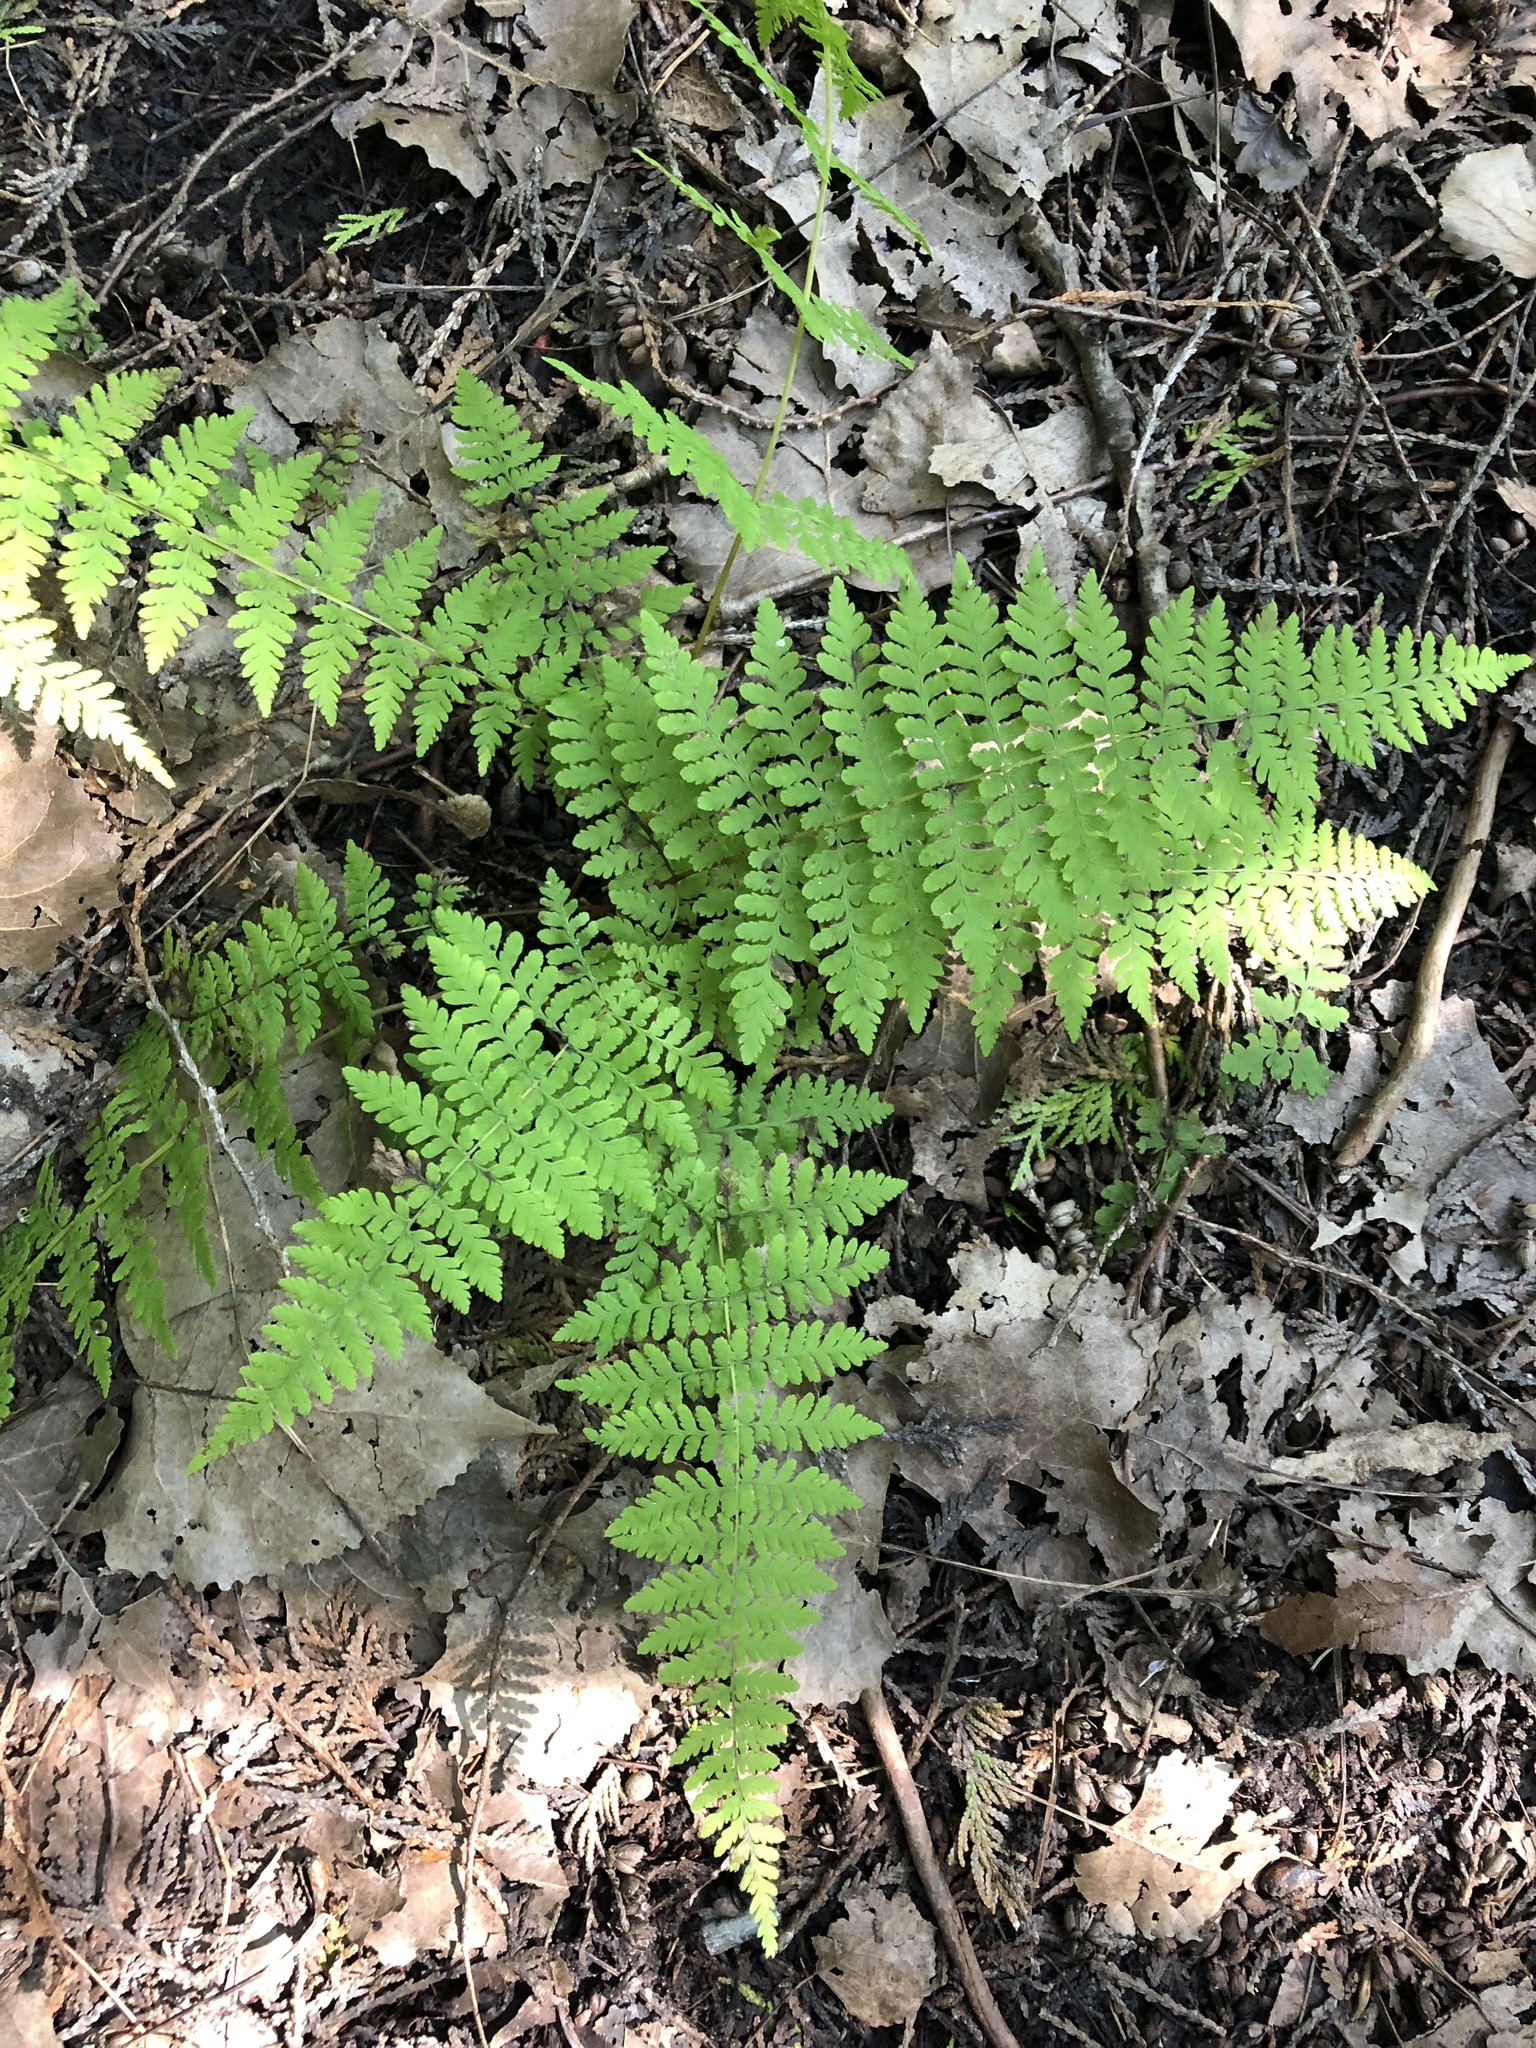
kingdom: Plantae
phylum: Tracheophyta
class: Polypodiopsida
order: Polypodiales
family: Cystopteridaceae
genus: Cystopteris
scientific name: Cystopteris bulbifera
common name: Bulblet bladder fern
